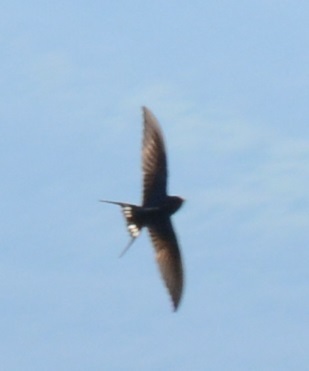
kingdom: Animalia
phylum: Chordata
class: Aves
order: Passeriformes
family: Hirundinidae
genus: Hirundo
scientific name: Hirundo rustica
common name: Barn swallow
